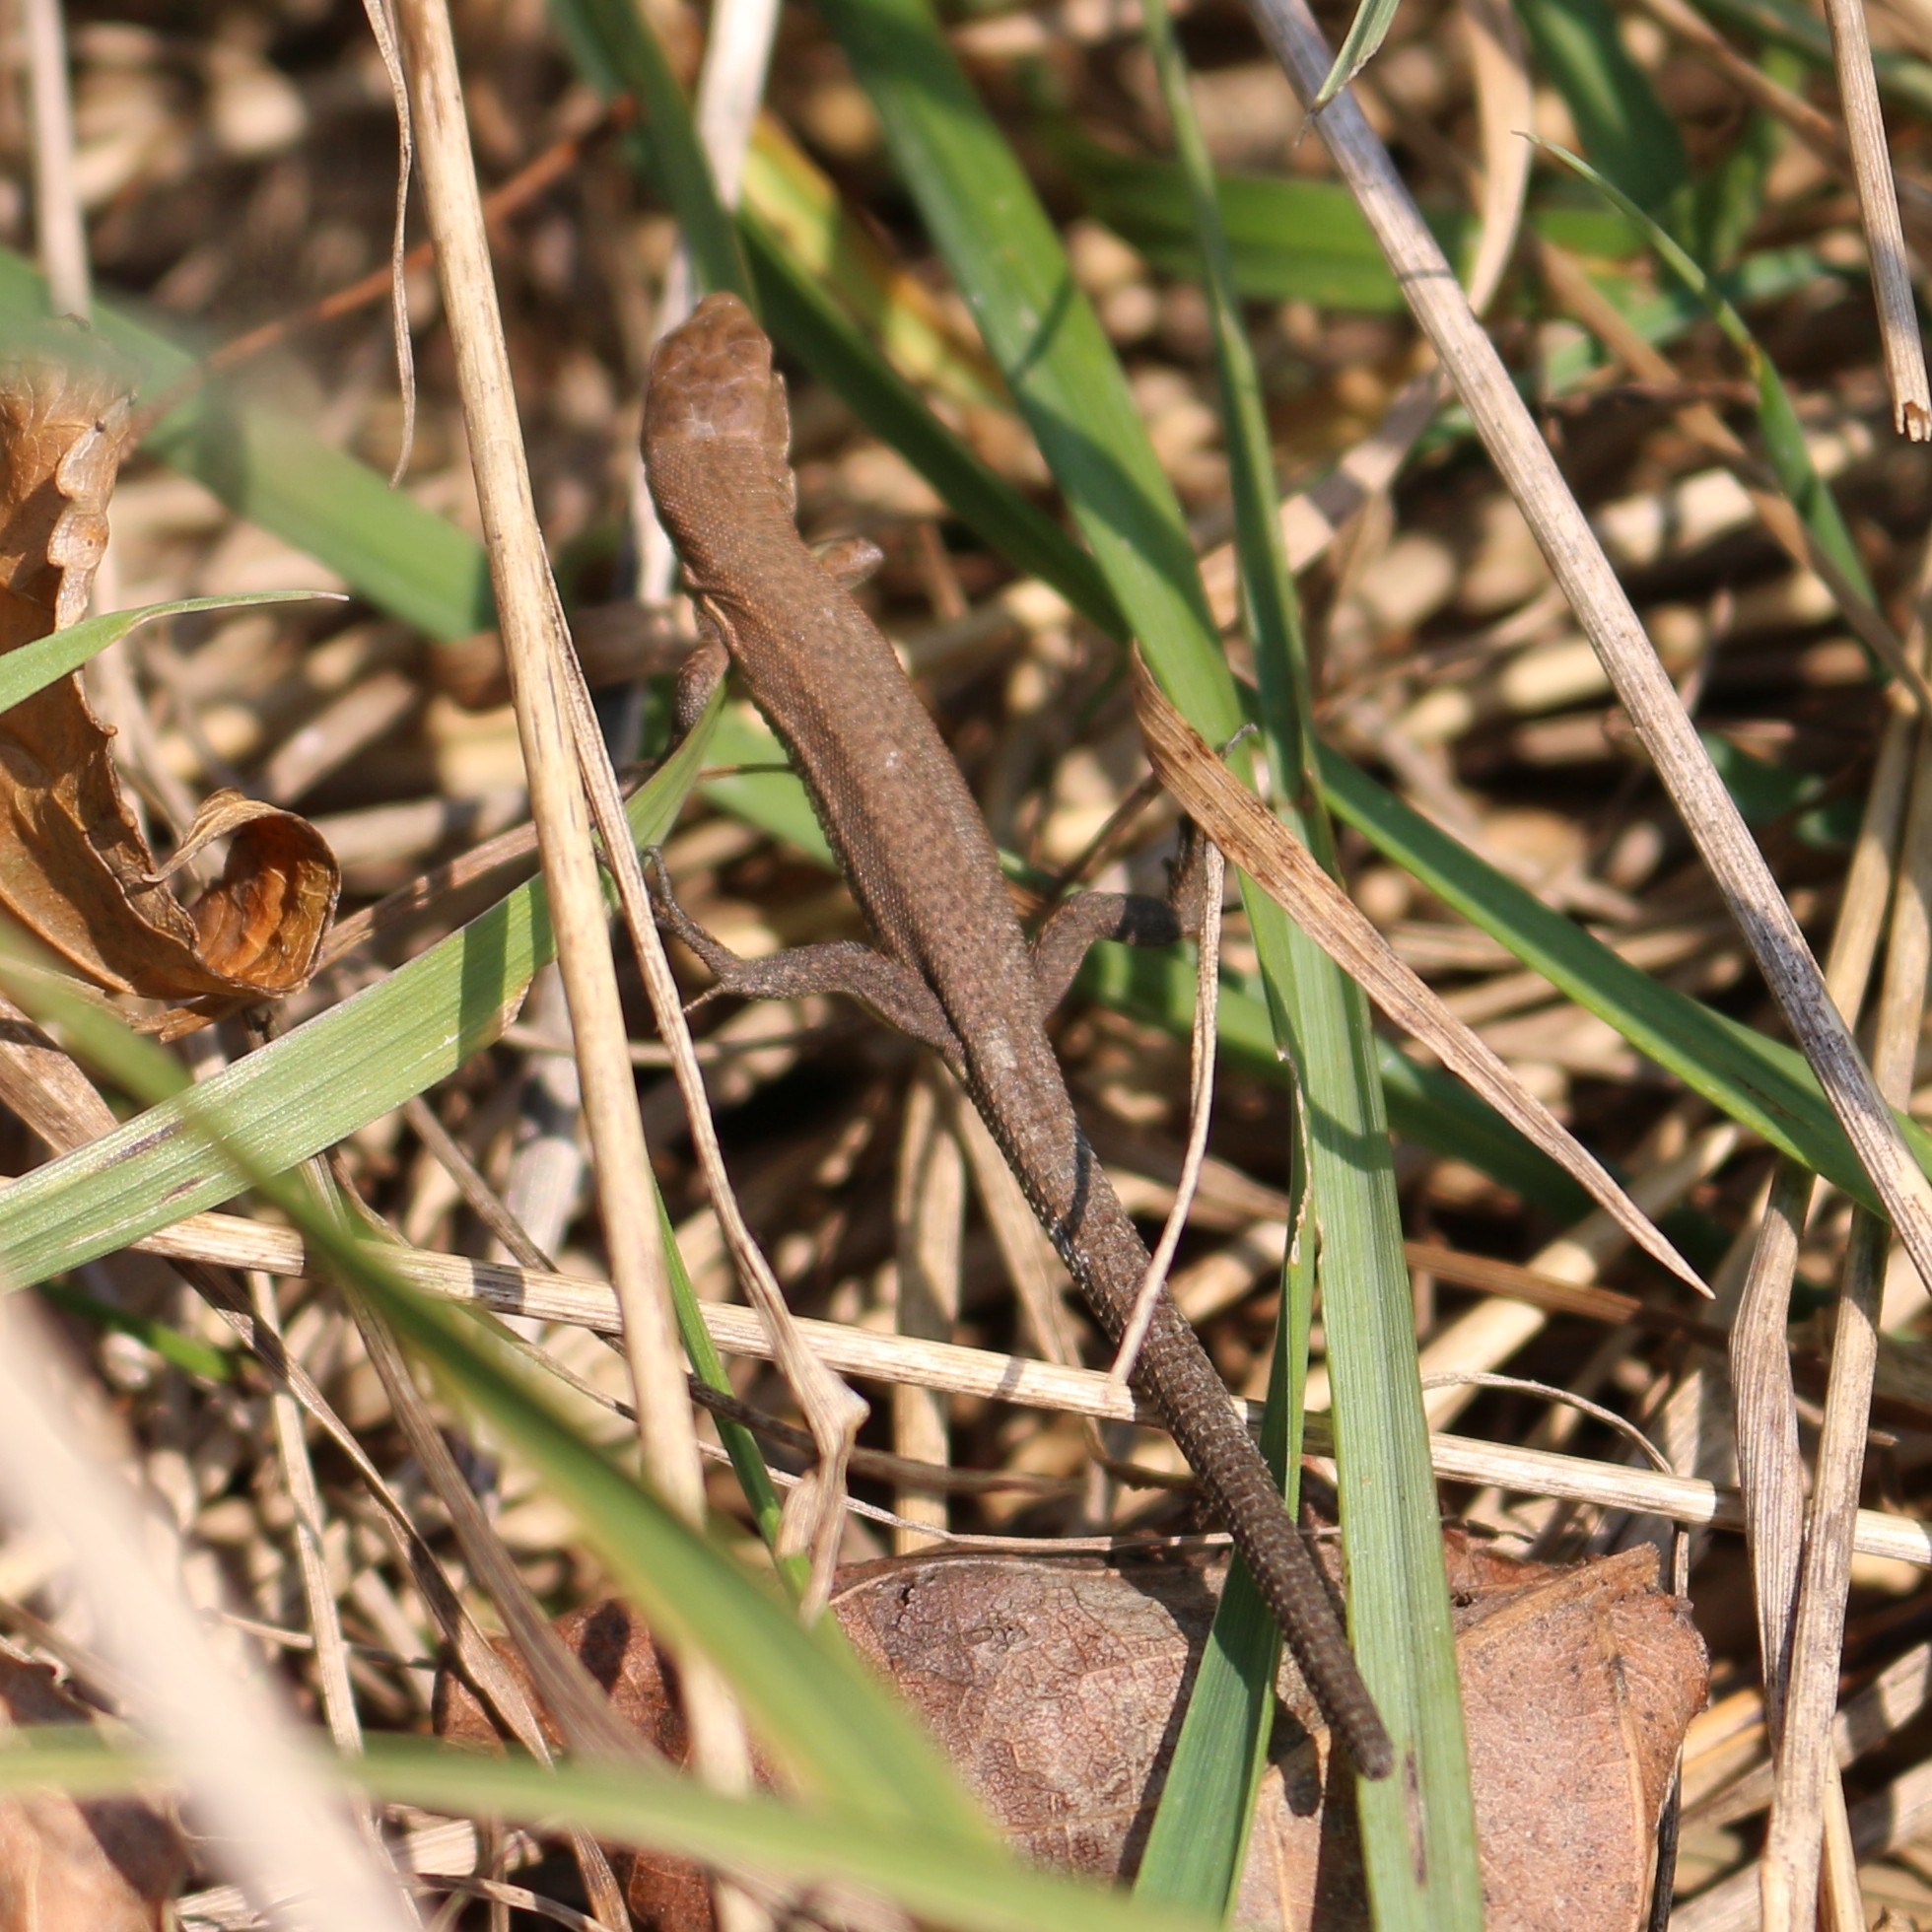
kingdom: Animalia
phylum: Chordata
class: Squamata
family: Lacertidae
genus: Darevskia
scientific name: Darevskia praticola
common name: Meadow lizard
